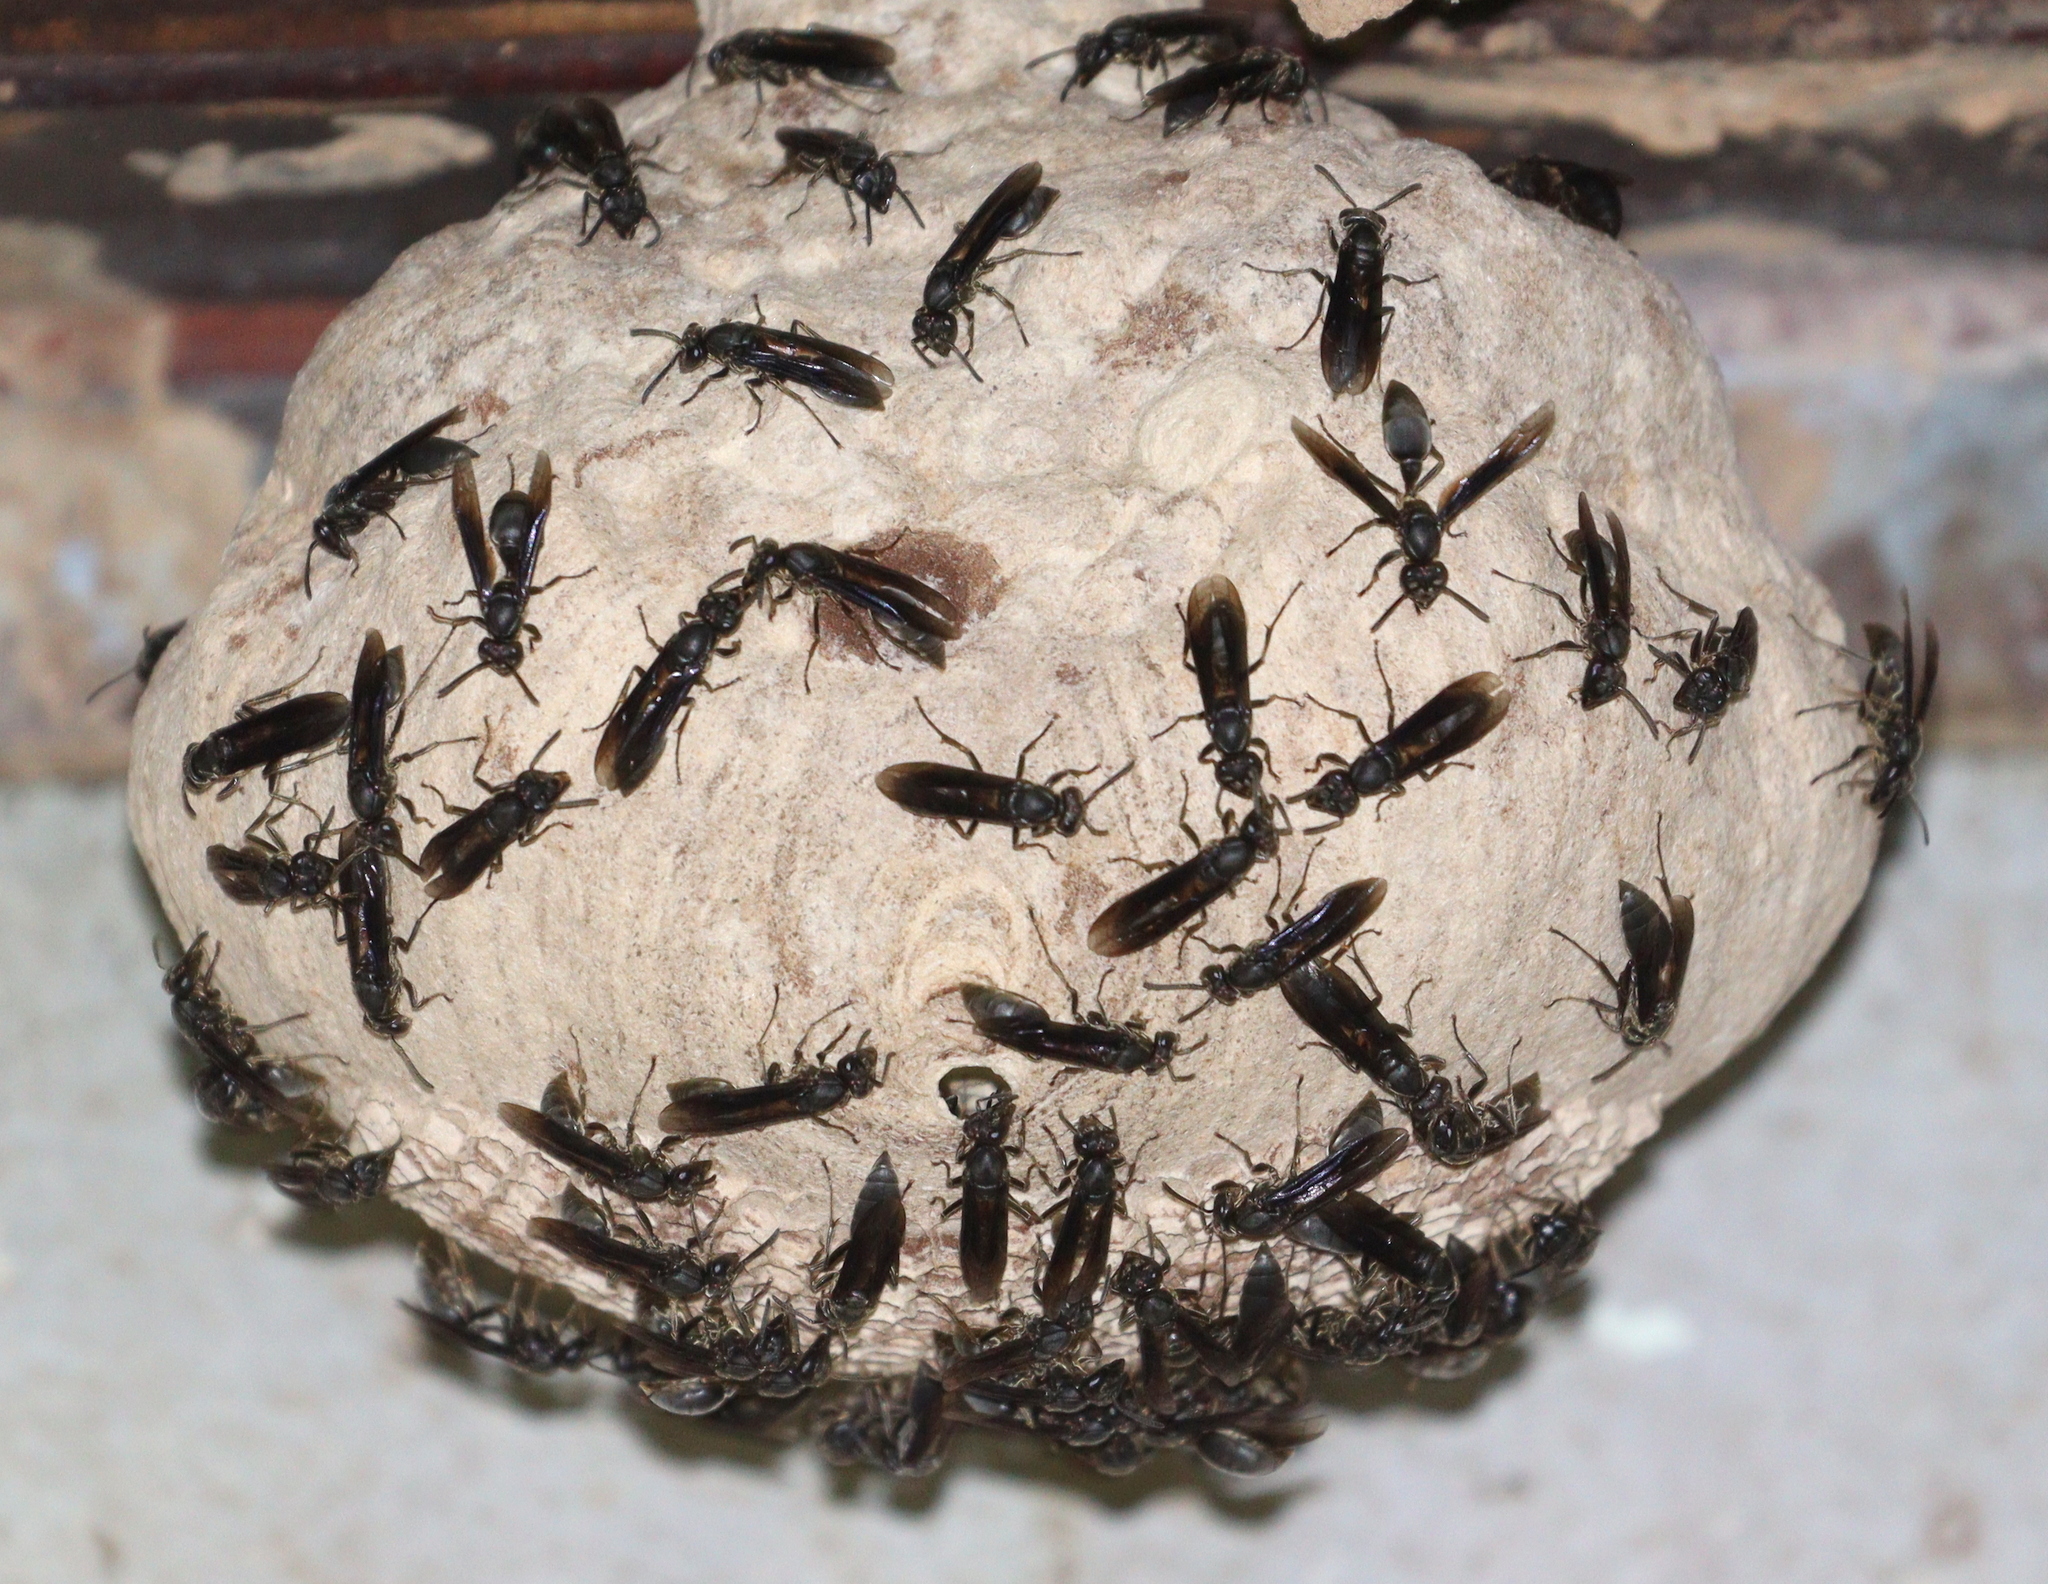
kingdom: Animalia
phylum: Arthropoda
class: Insecta
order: Hymenoptera
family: Eumenidae
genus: Polybia
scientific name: Polybia ignobilis
